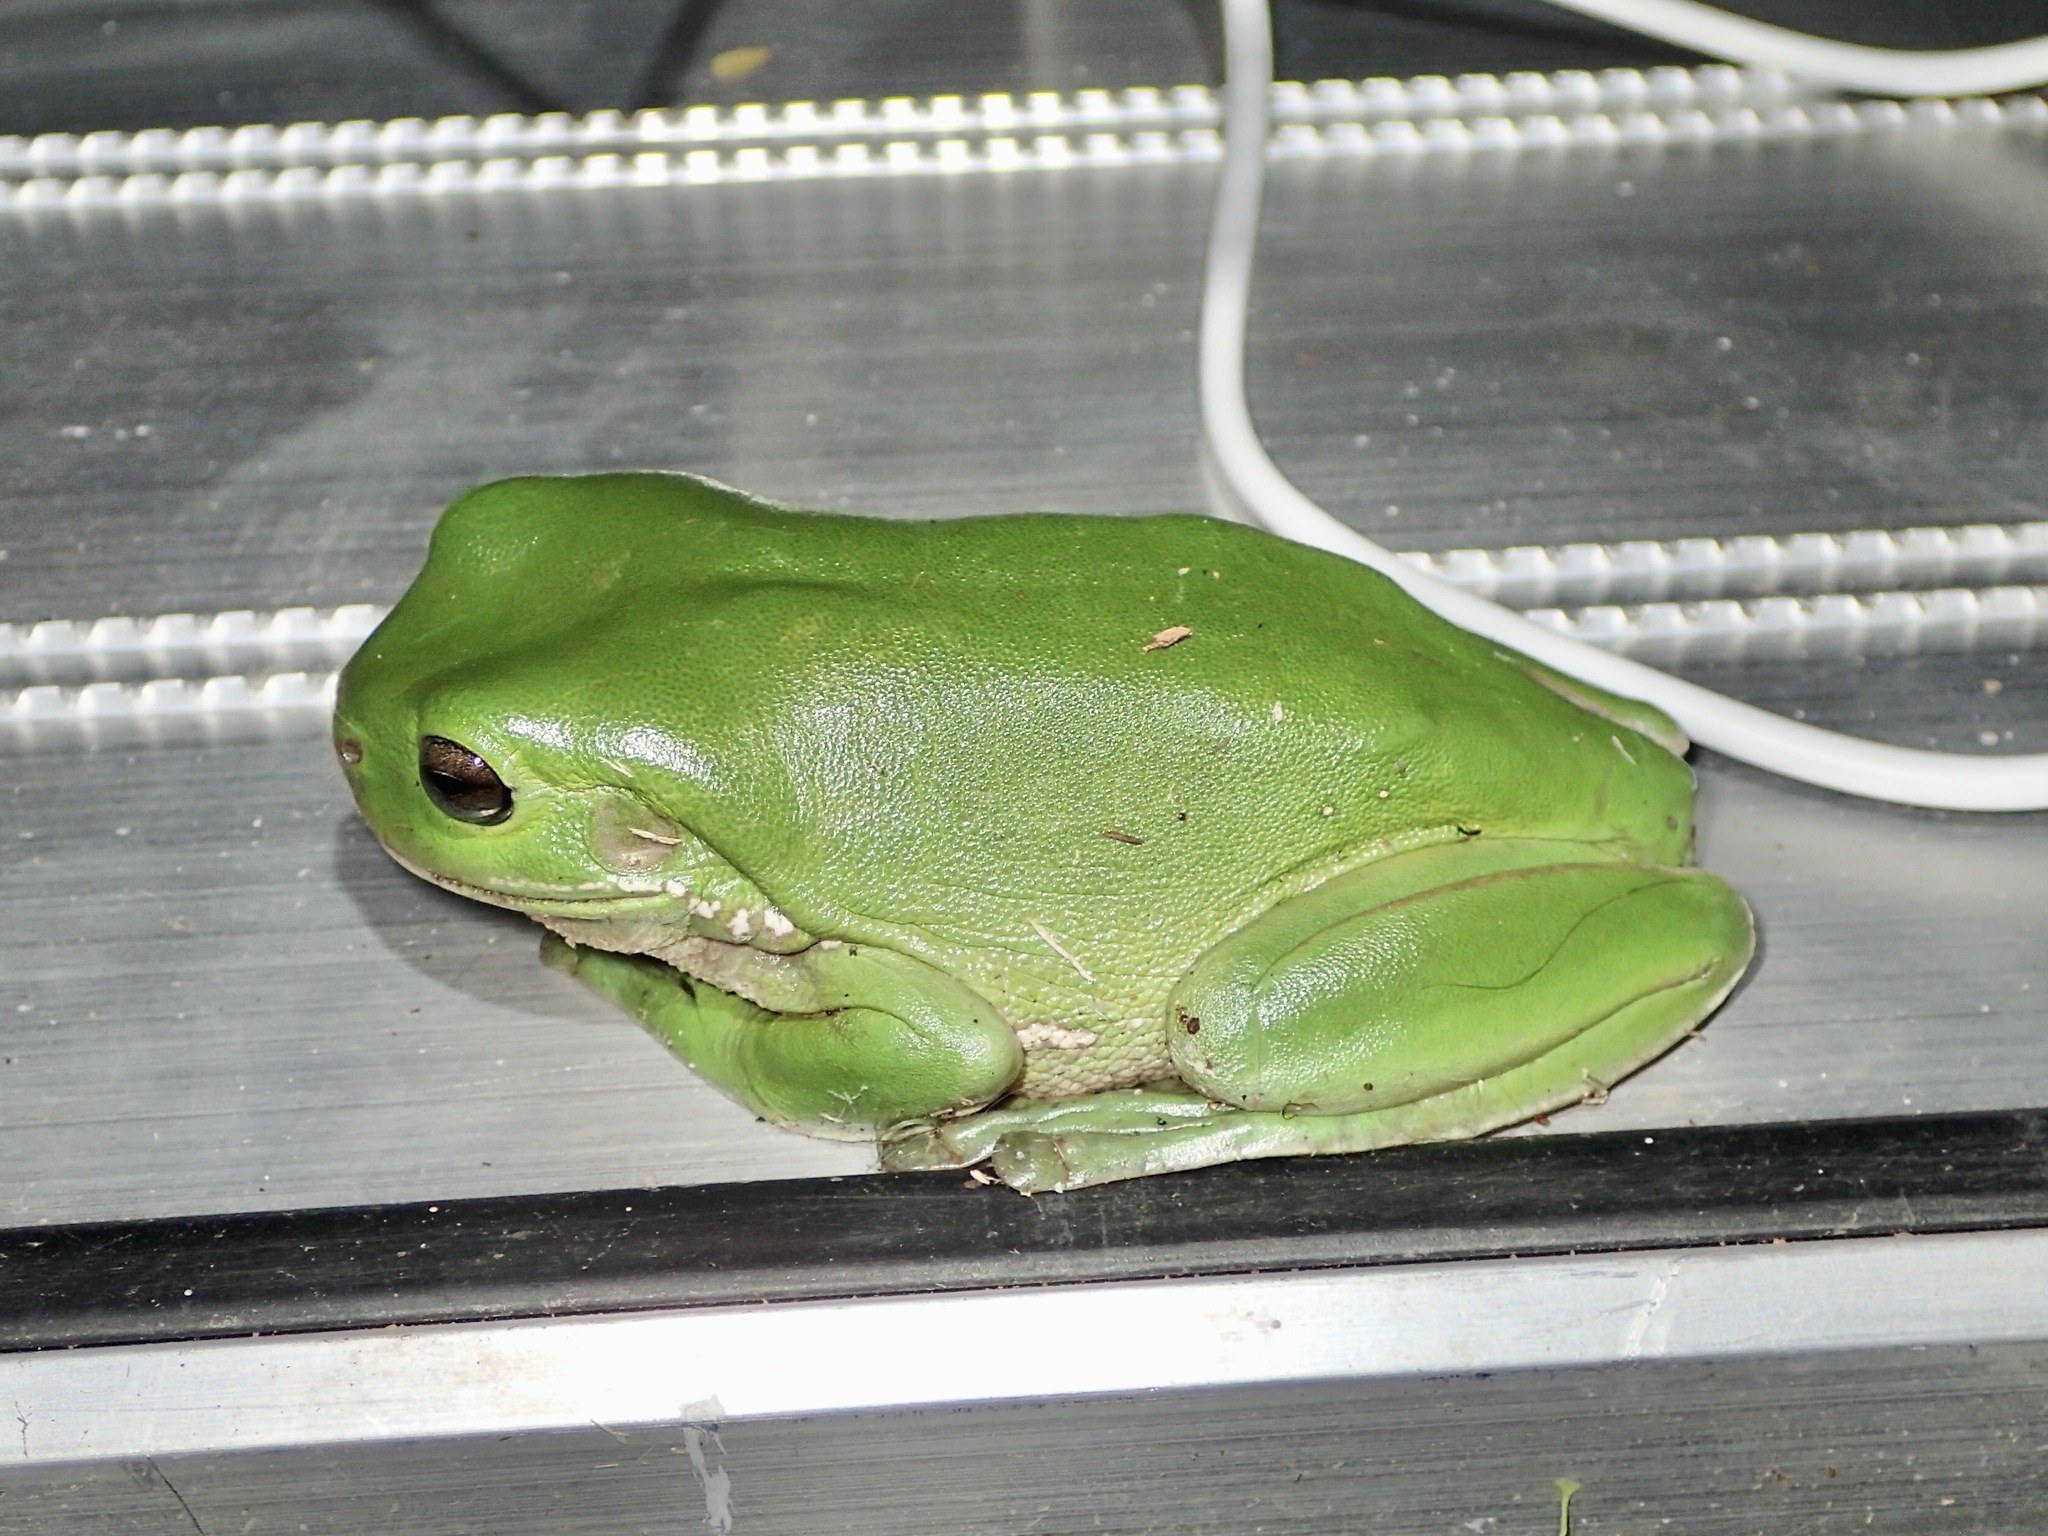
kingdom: Animalia
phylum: Chordata
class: Amphibia
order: Anura
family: Pelodryadidae
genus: Ranoidea
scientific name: Ranoidea caerulea
